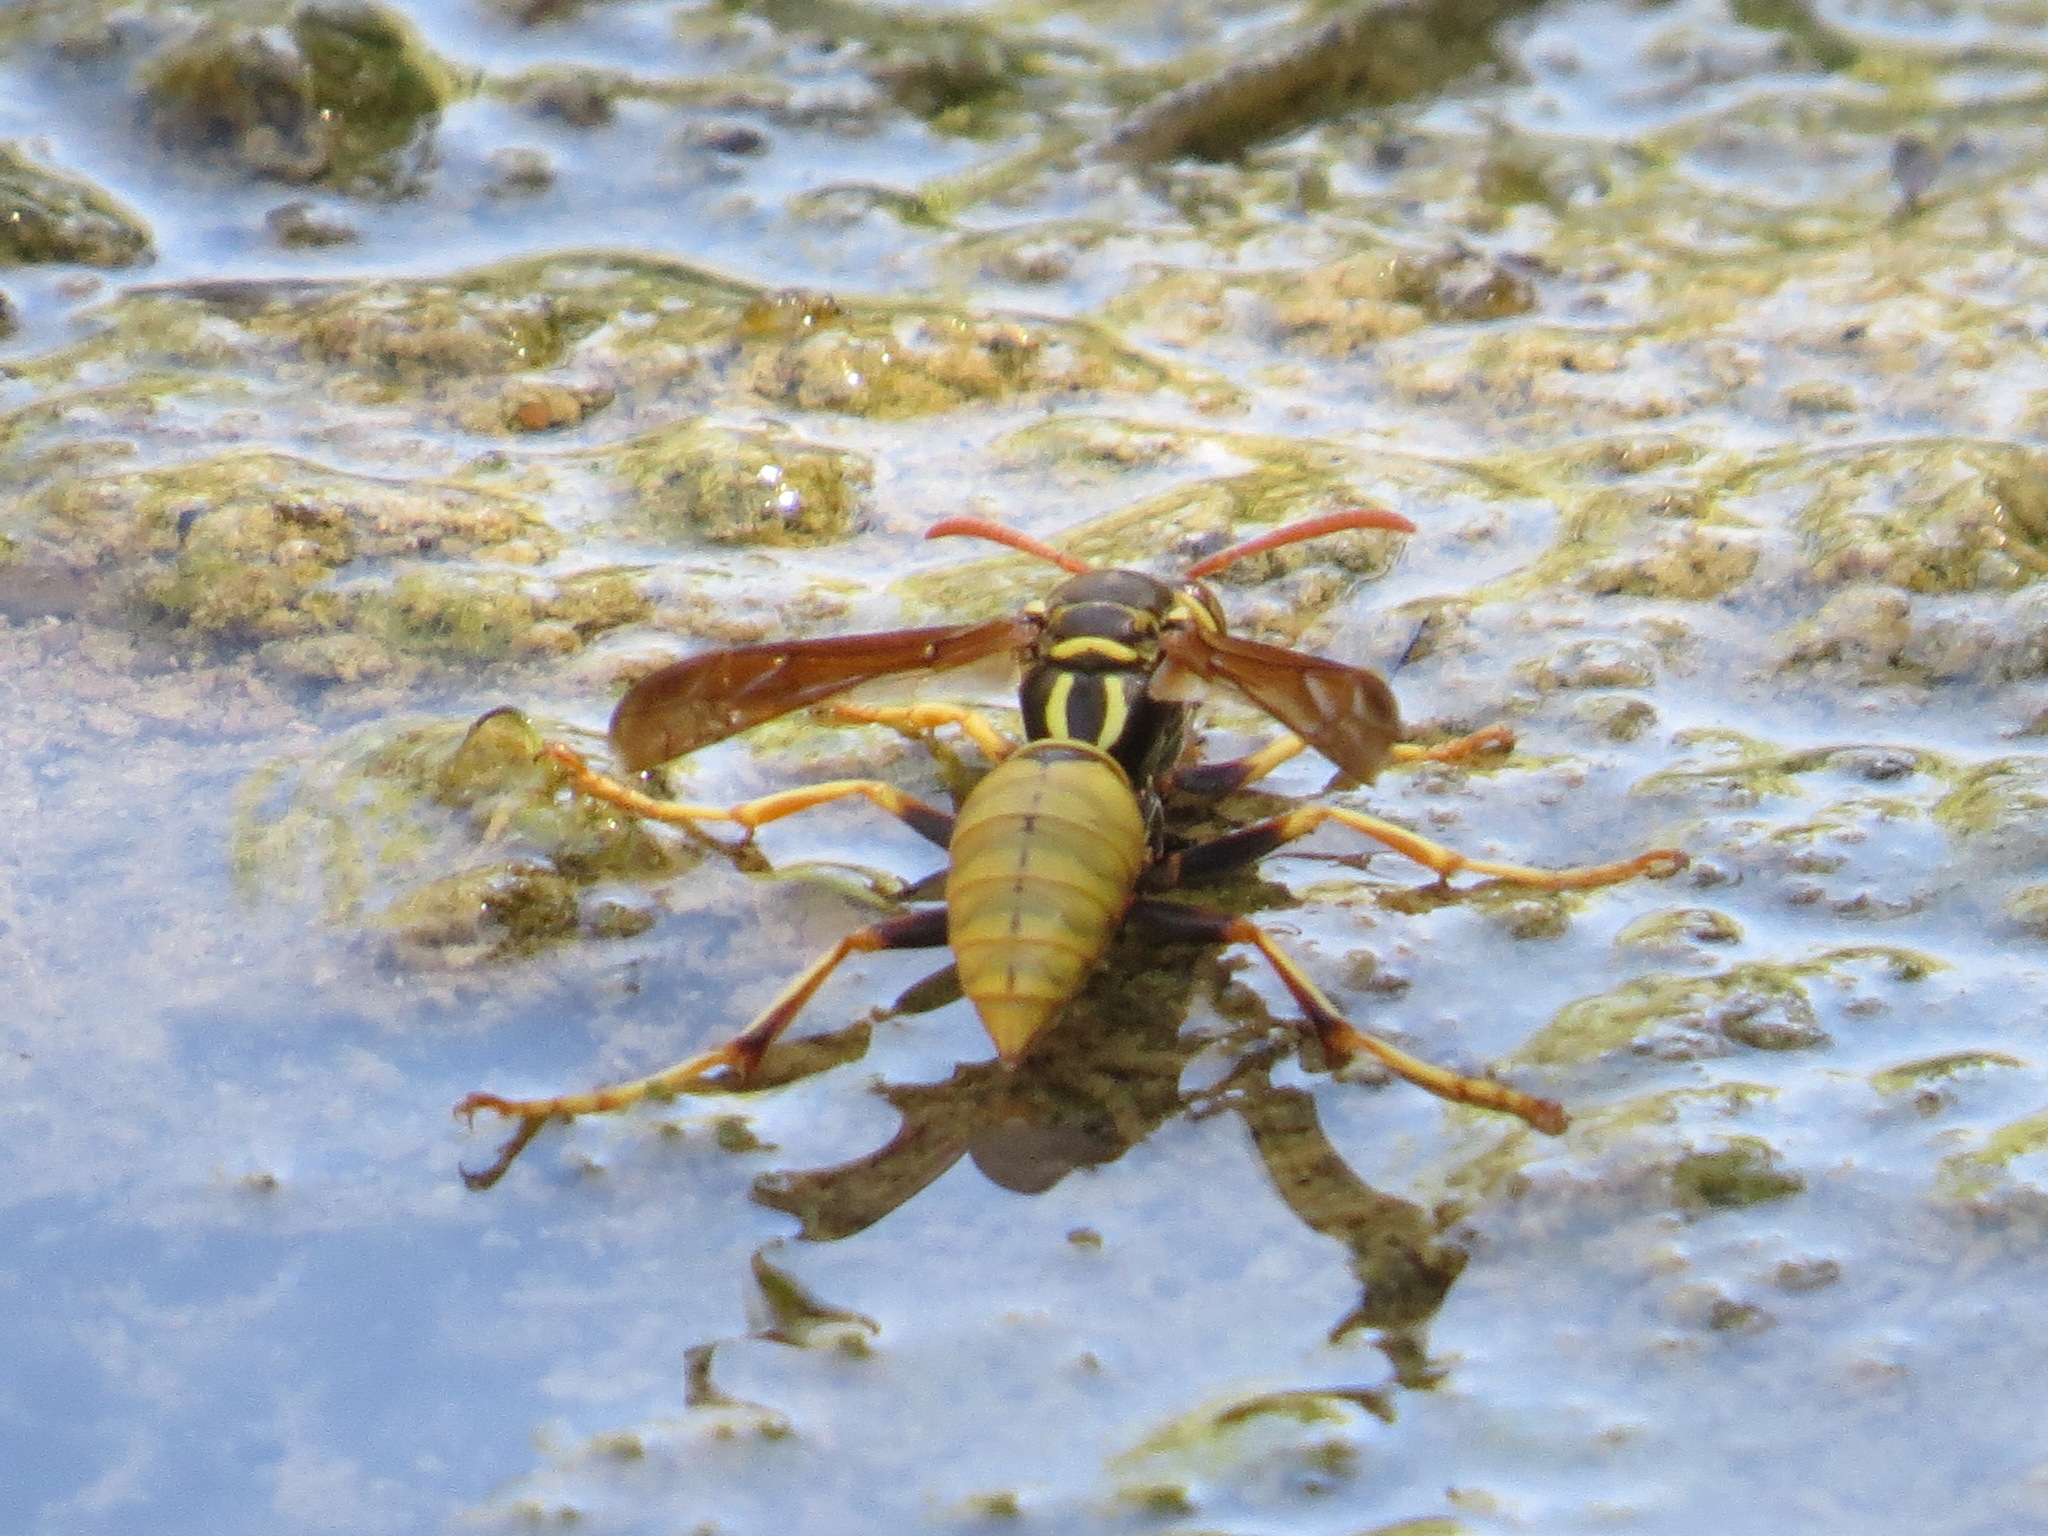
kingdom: Animalia
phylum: Arthropoda
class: Insecta
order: Hymenoptera
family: Eumenidae
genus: Polistes
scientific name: Polistes aurifer
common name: Paper wasp
